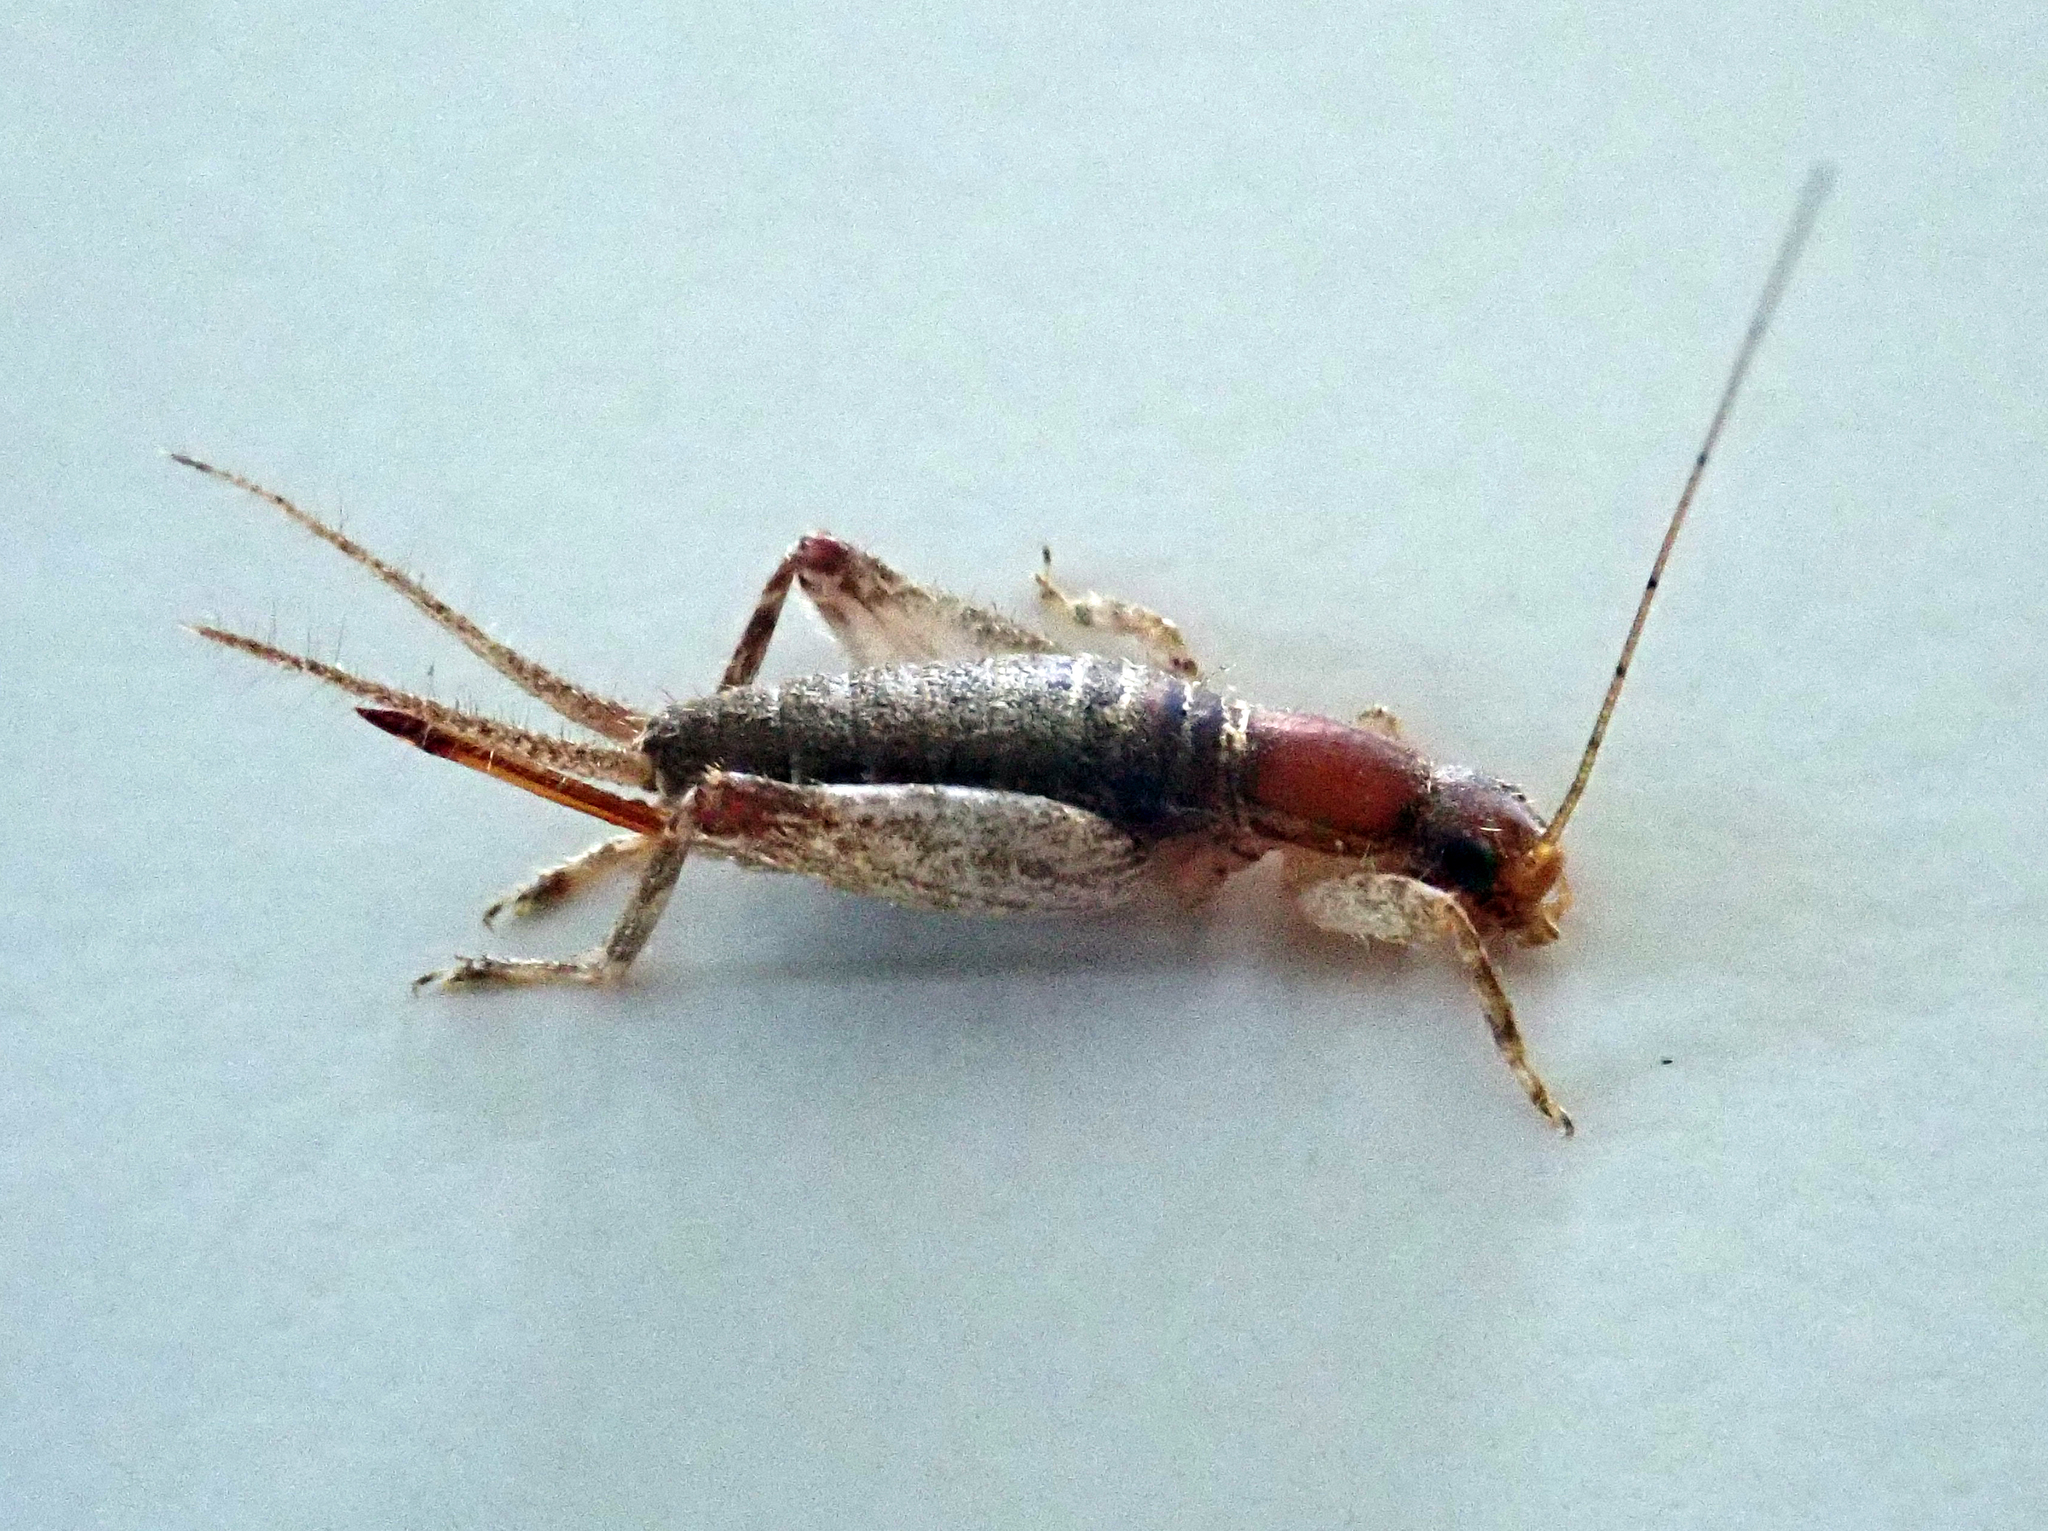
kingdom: Animalia
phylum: Arthropoda
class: Insecta
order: Orthoptera
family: Mogoplistidae
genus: Ornebius
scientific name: Ornebius aperta
